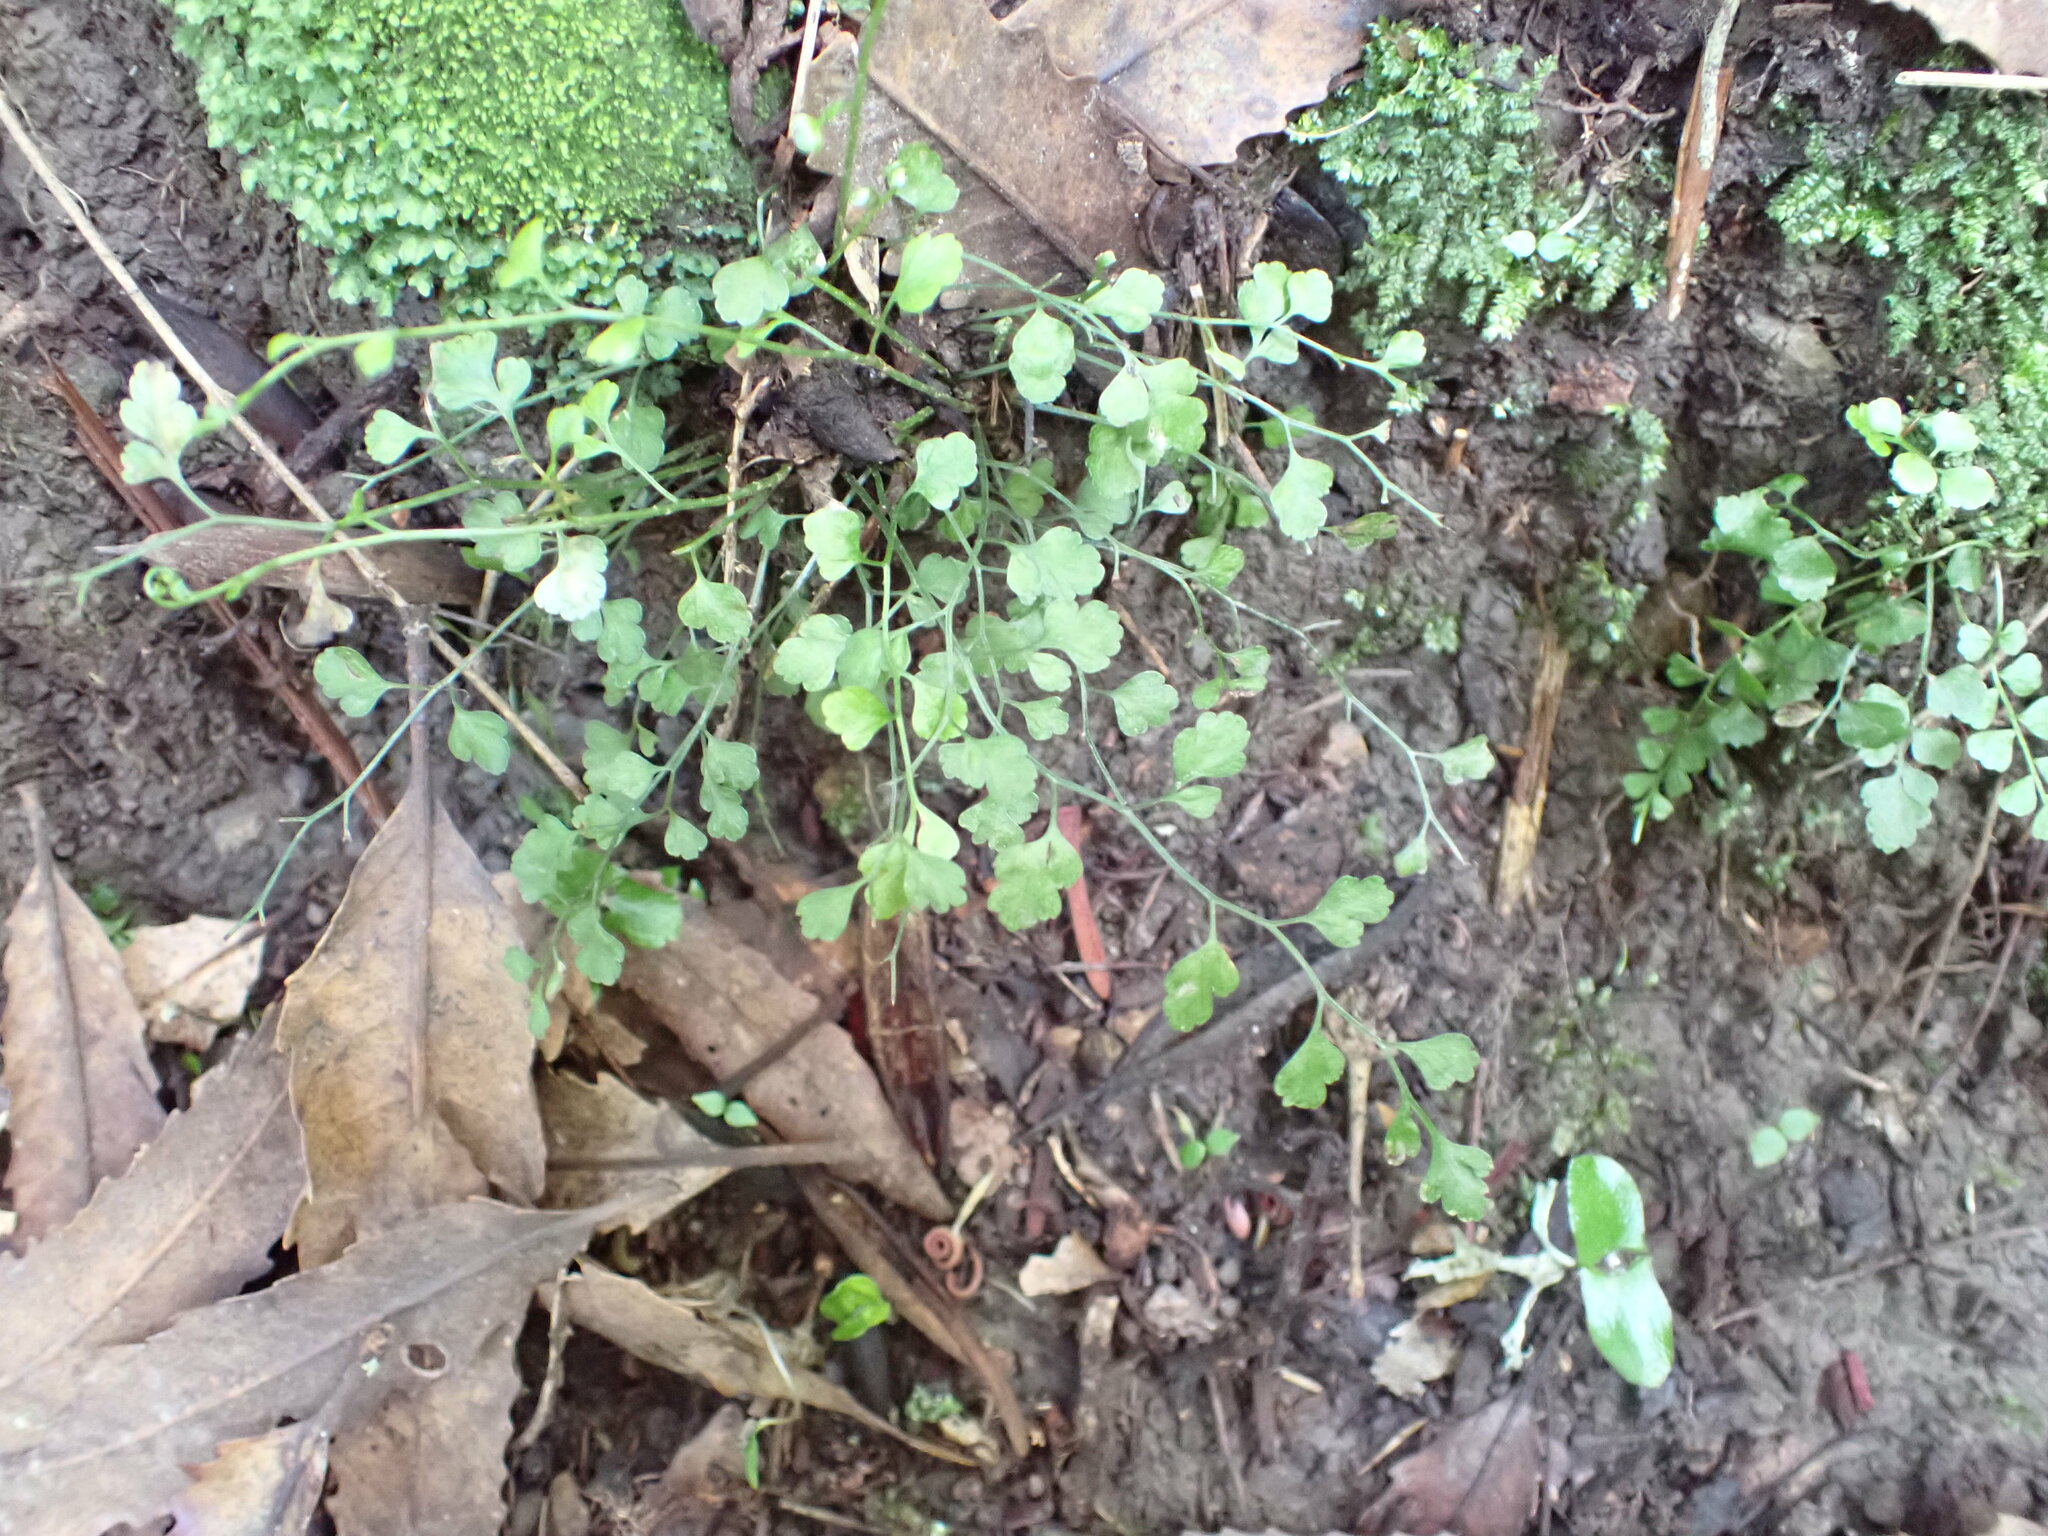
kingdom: Plantae
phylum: Tracheophyta
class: Polypodiopsida
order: Polypodiales
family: Aspleniaceae
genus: Asplenium
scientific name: Asplenium hookerianum
